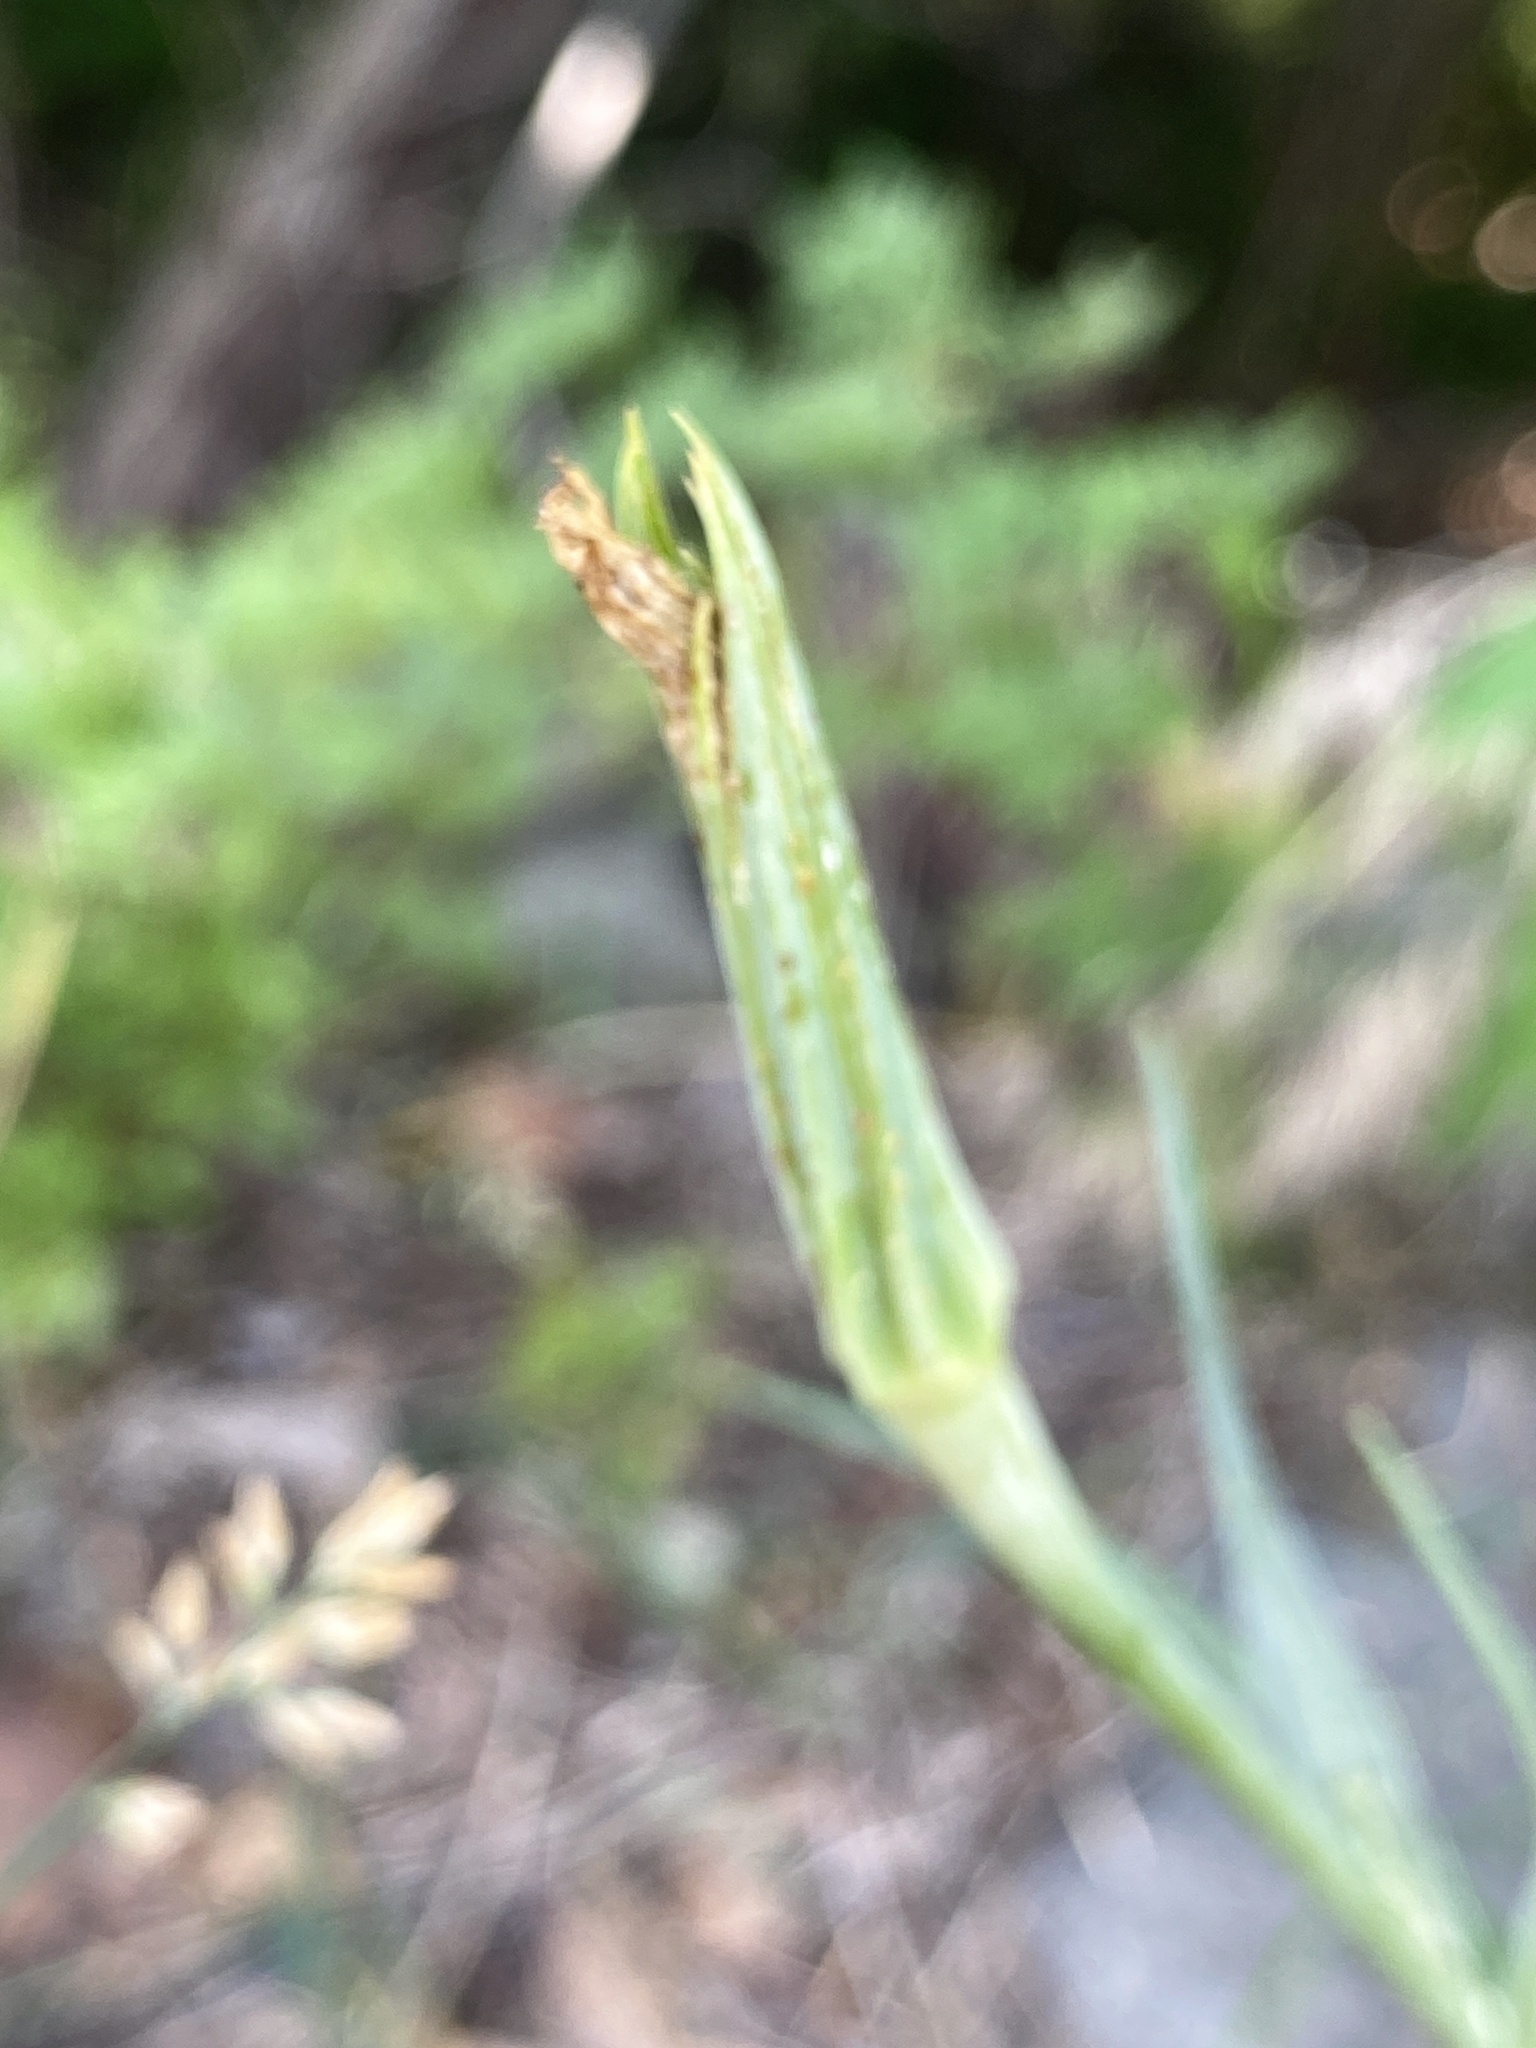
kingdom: Plantae
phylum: Tracheophyta
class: Magnoliopsida
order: Asterales
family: Asteraceae
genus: Tragopogon
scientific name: Tragopogon dubius
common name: Yellow salsify
